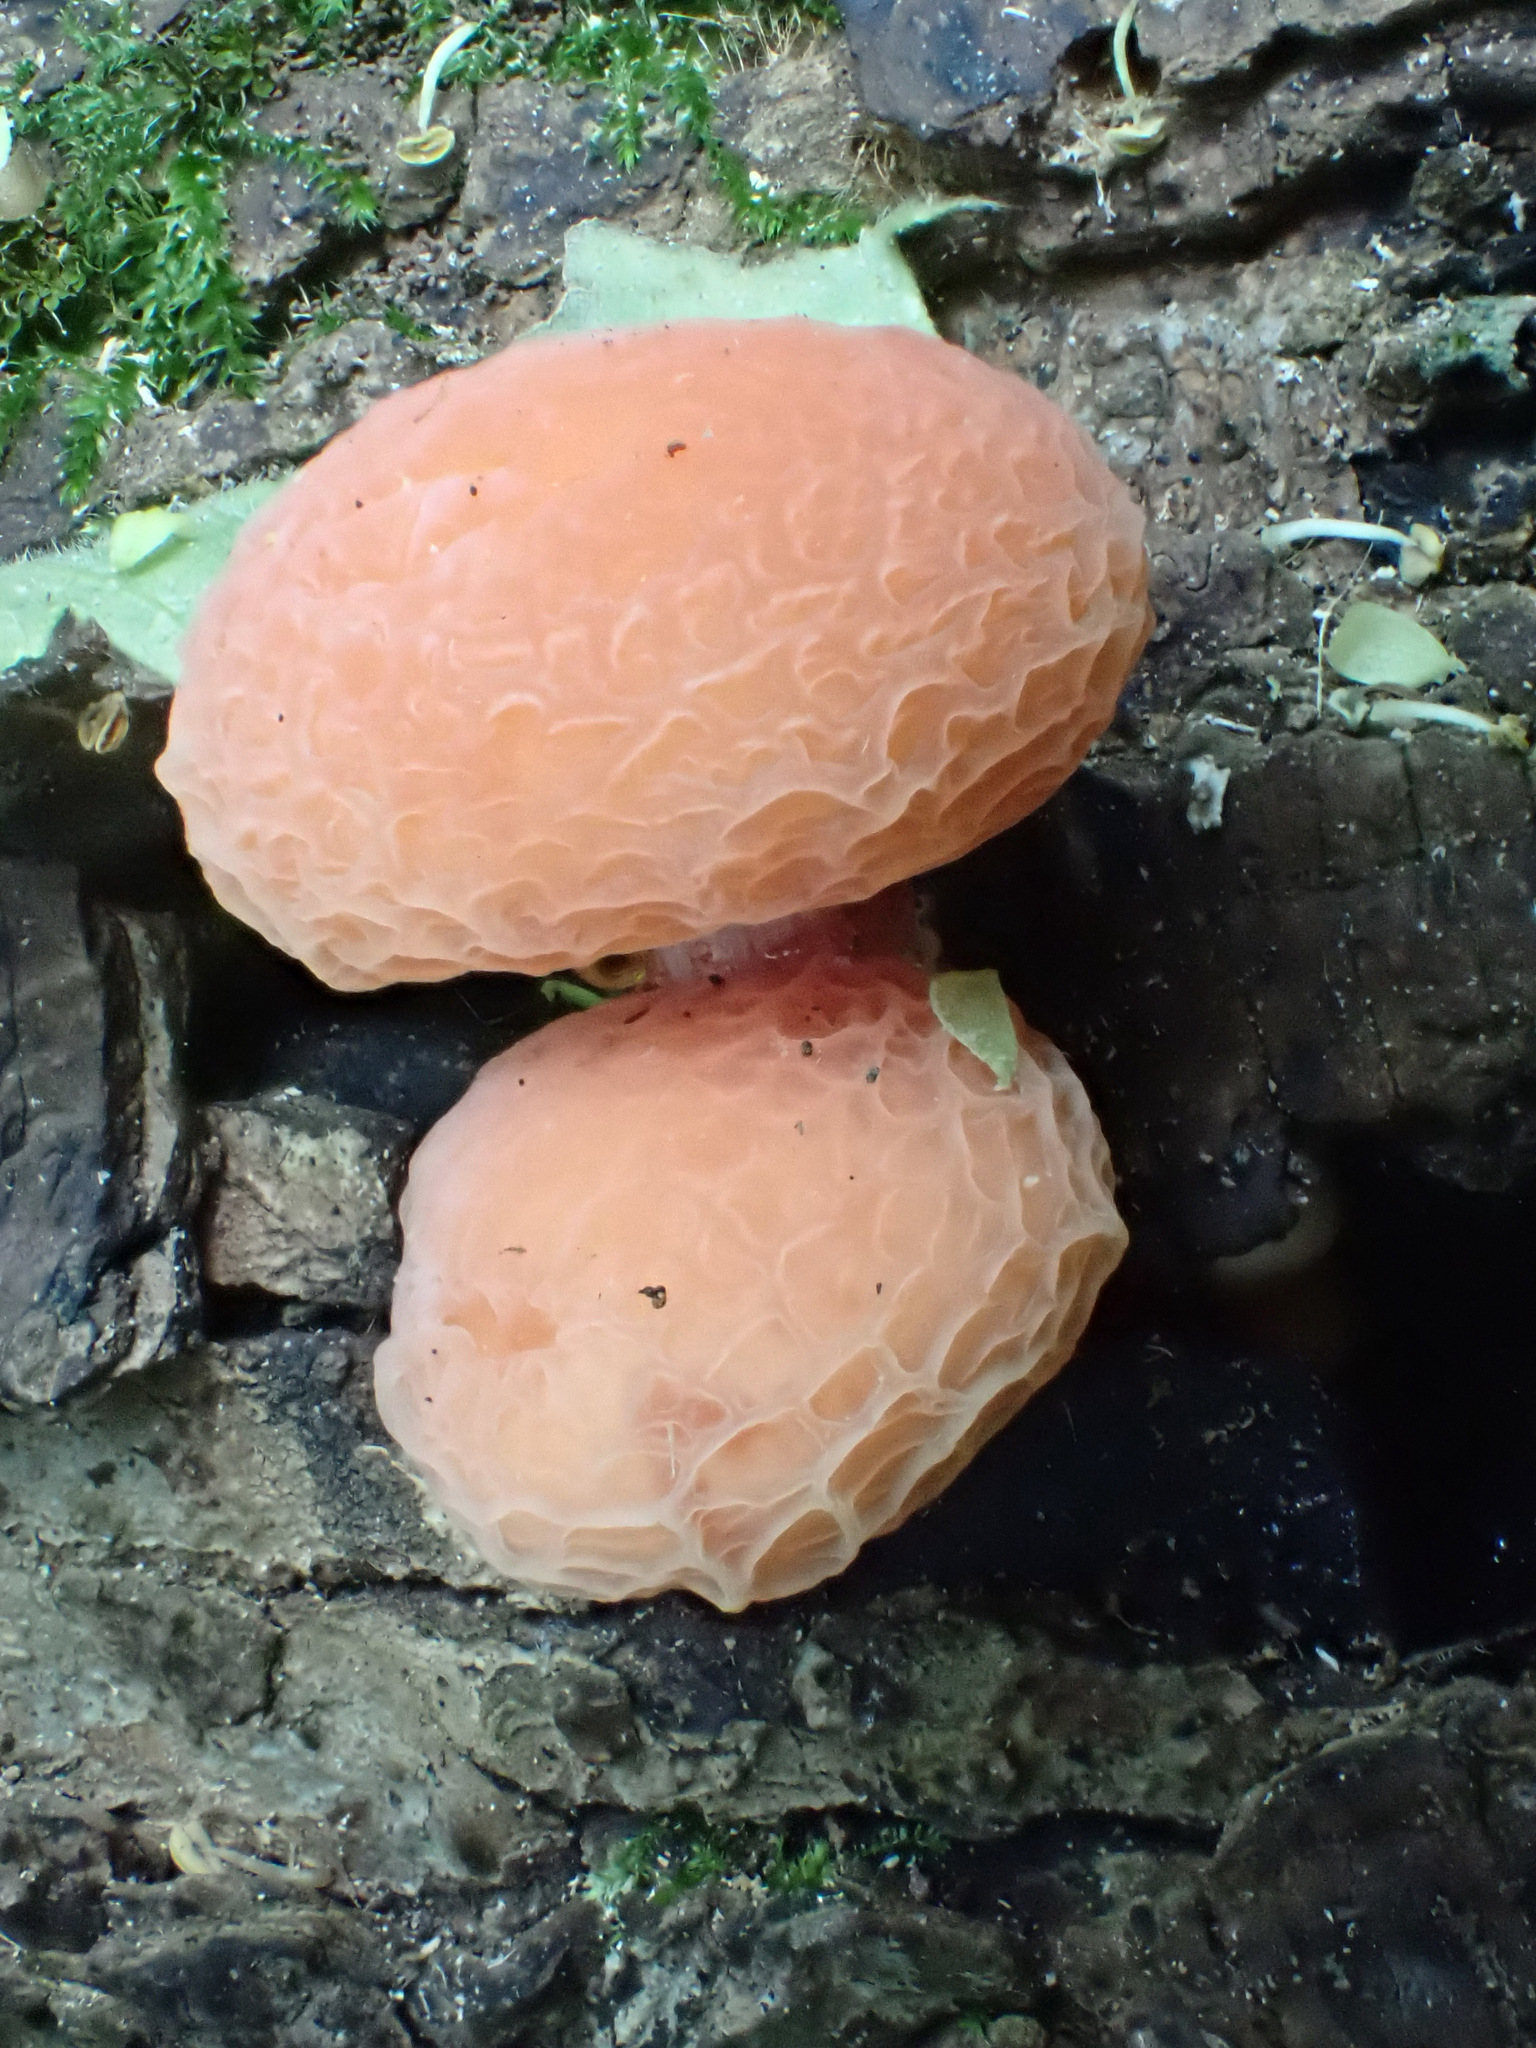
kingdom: Fungi
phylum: Basidiomycota
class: Agaricomycetes
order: Agaricales
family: Physalacriaceae
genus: Rhodotus
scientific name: Rhodotus palmatus
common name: Wrinkled peach
